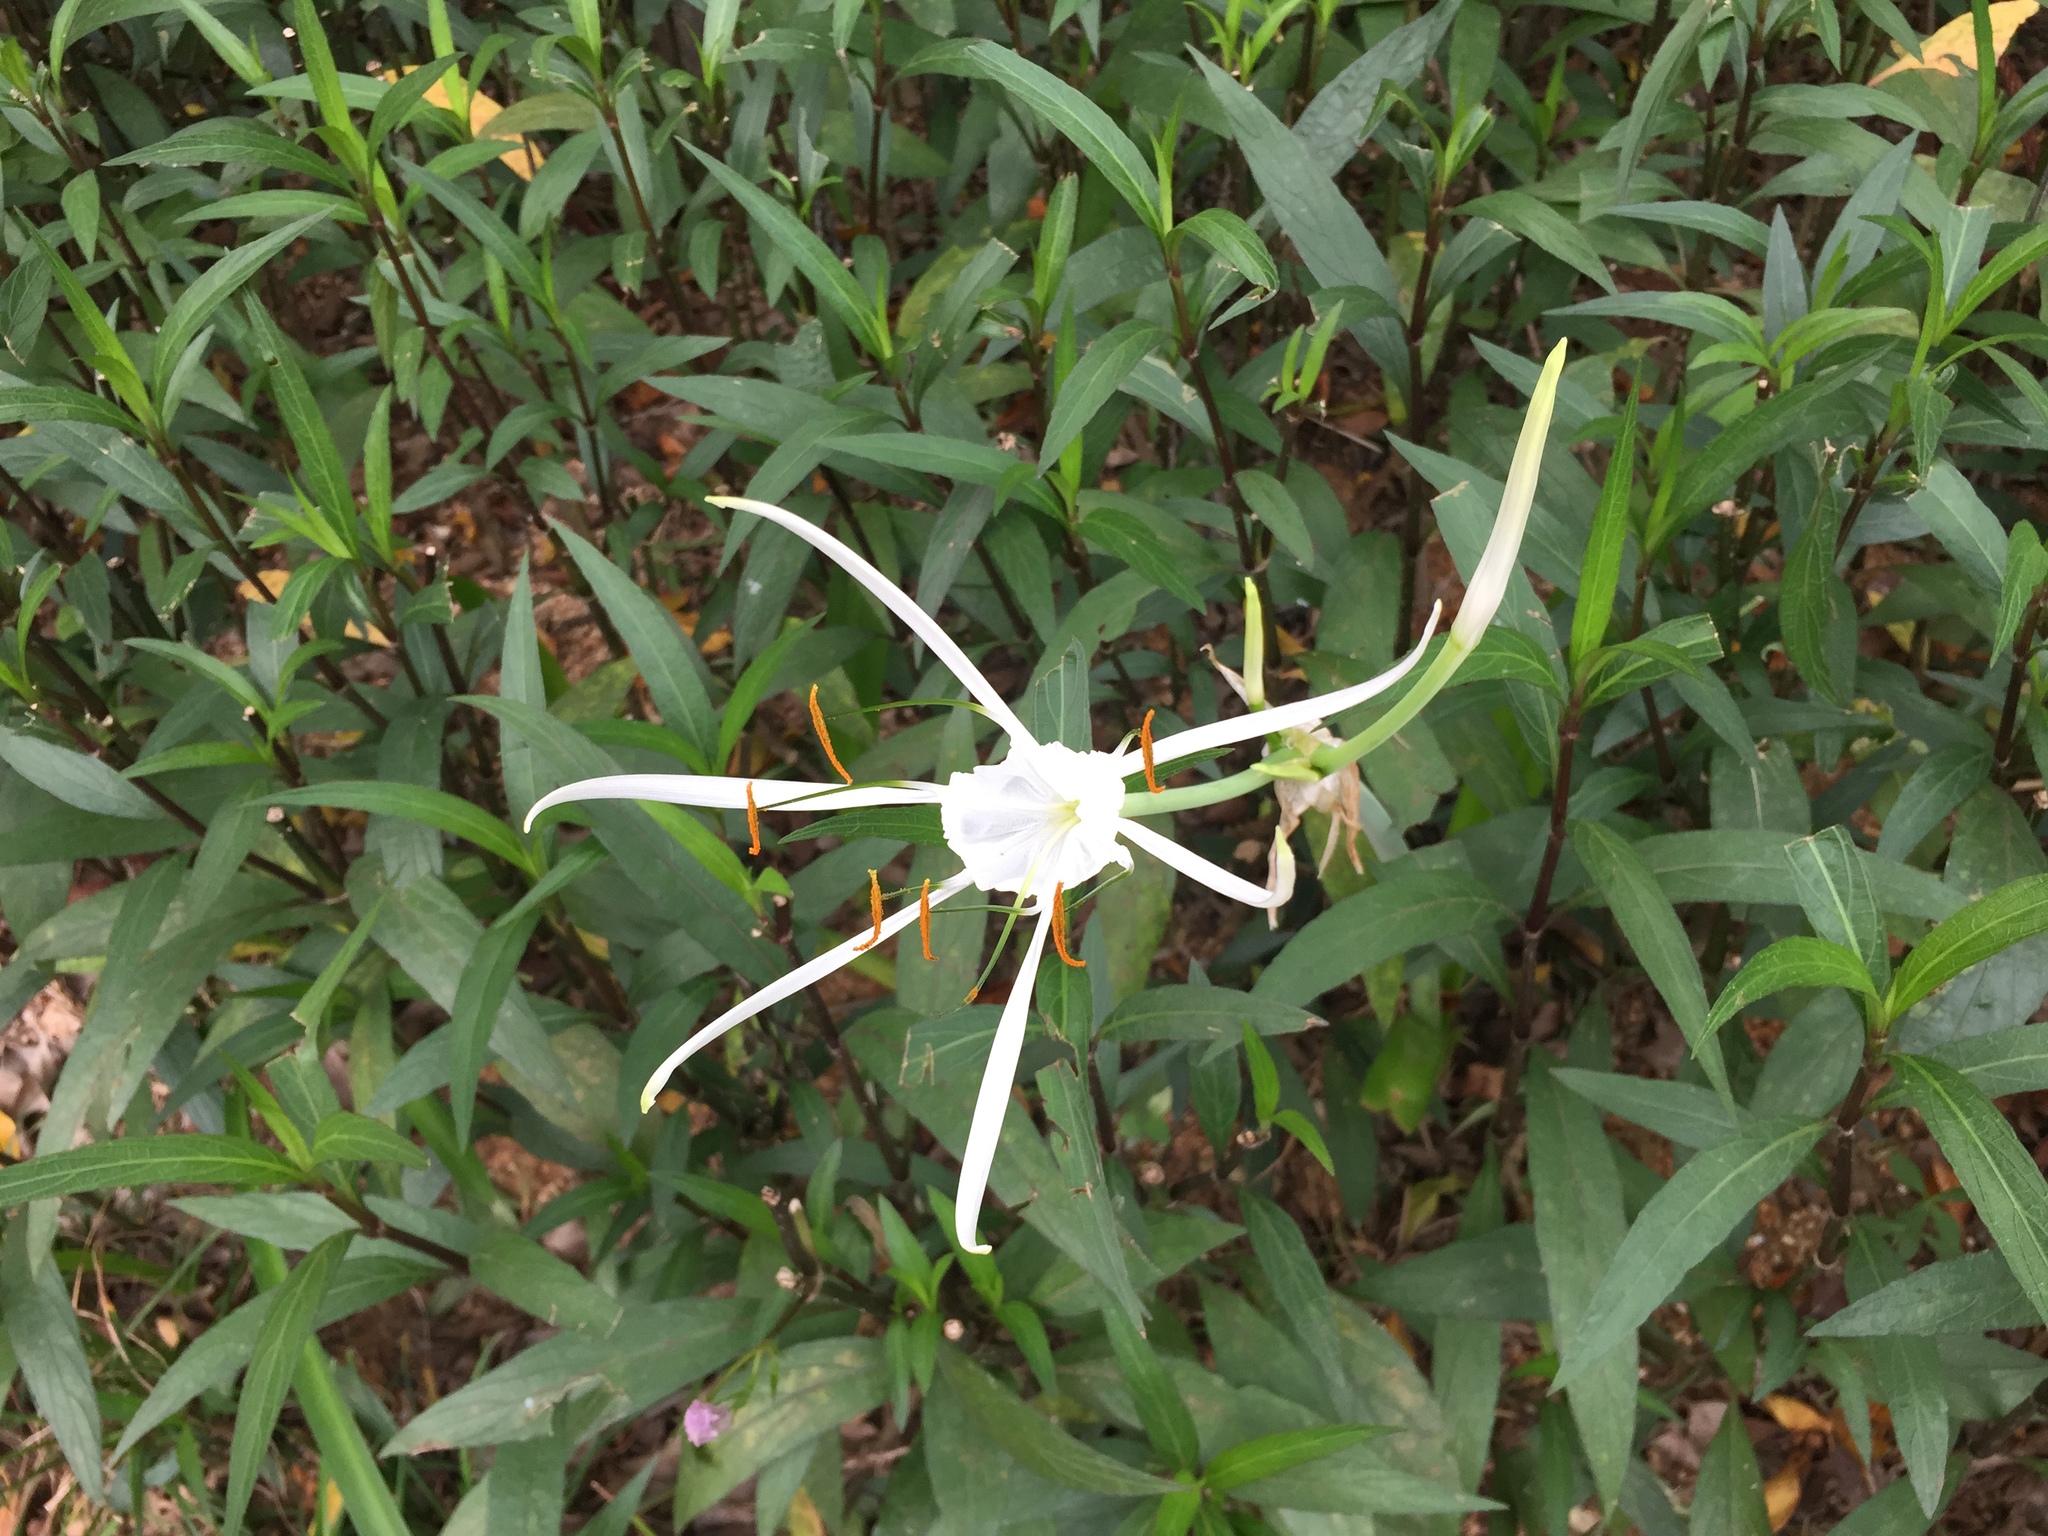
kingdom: Plantae
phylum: Tracheophyta
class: Liliopsida
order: Asparagales
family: Amaryllidaceae
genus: Hymenocallis
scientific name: Hymenocallis littoralis
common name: Beach spiderlily
